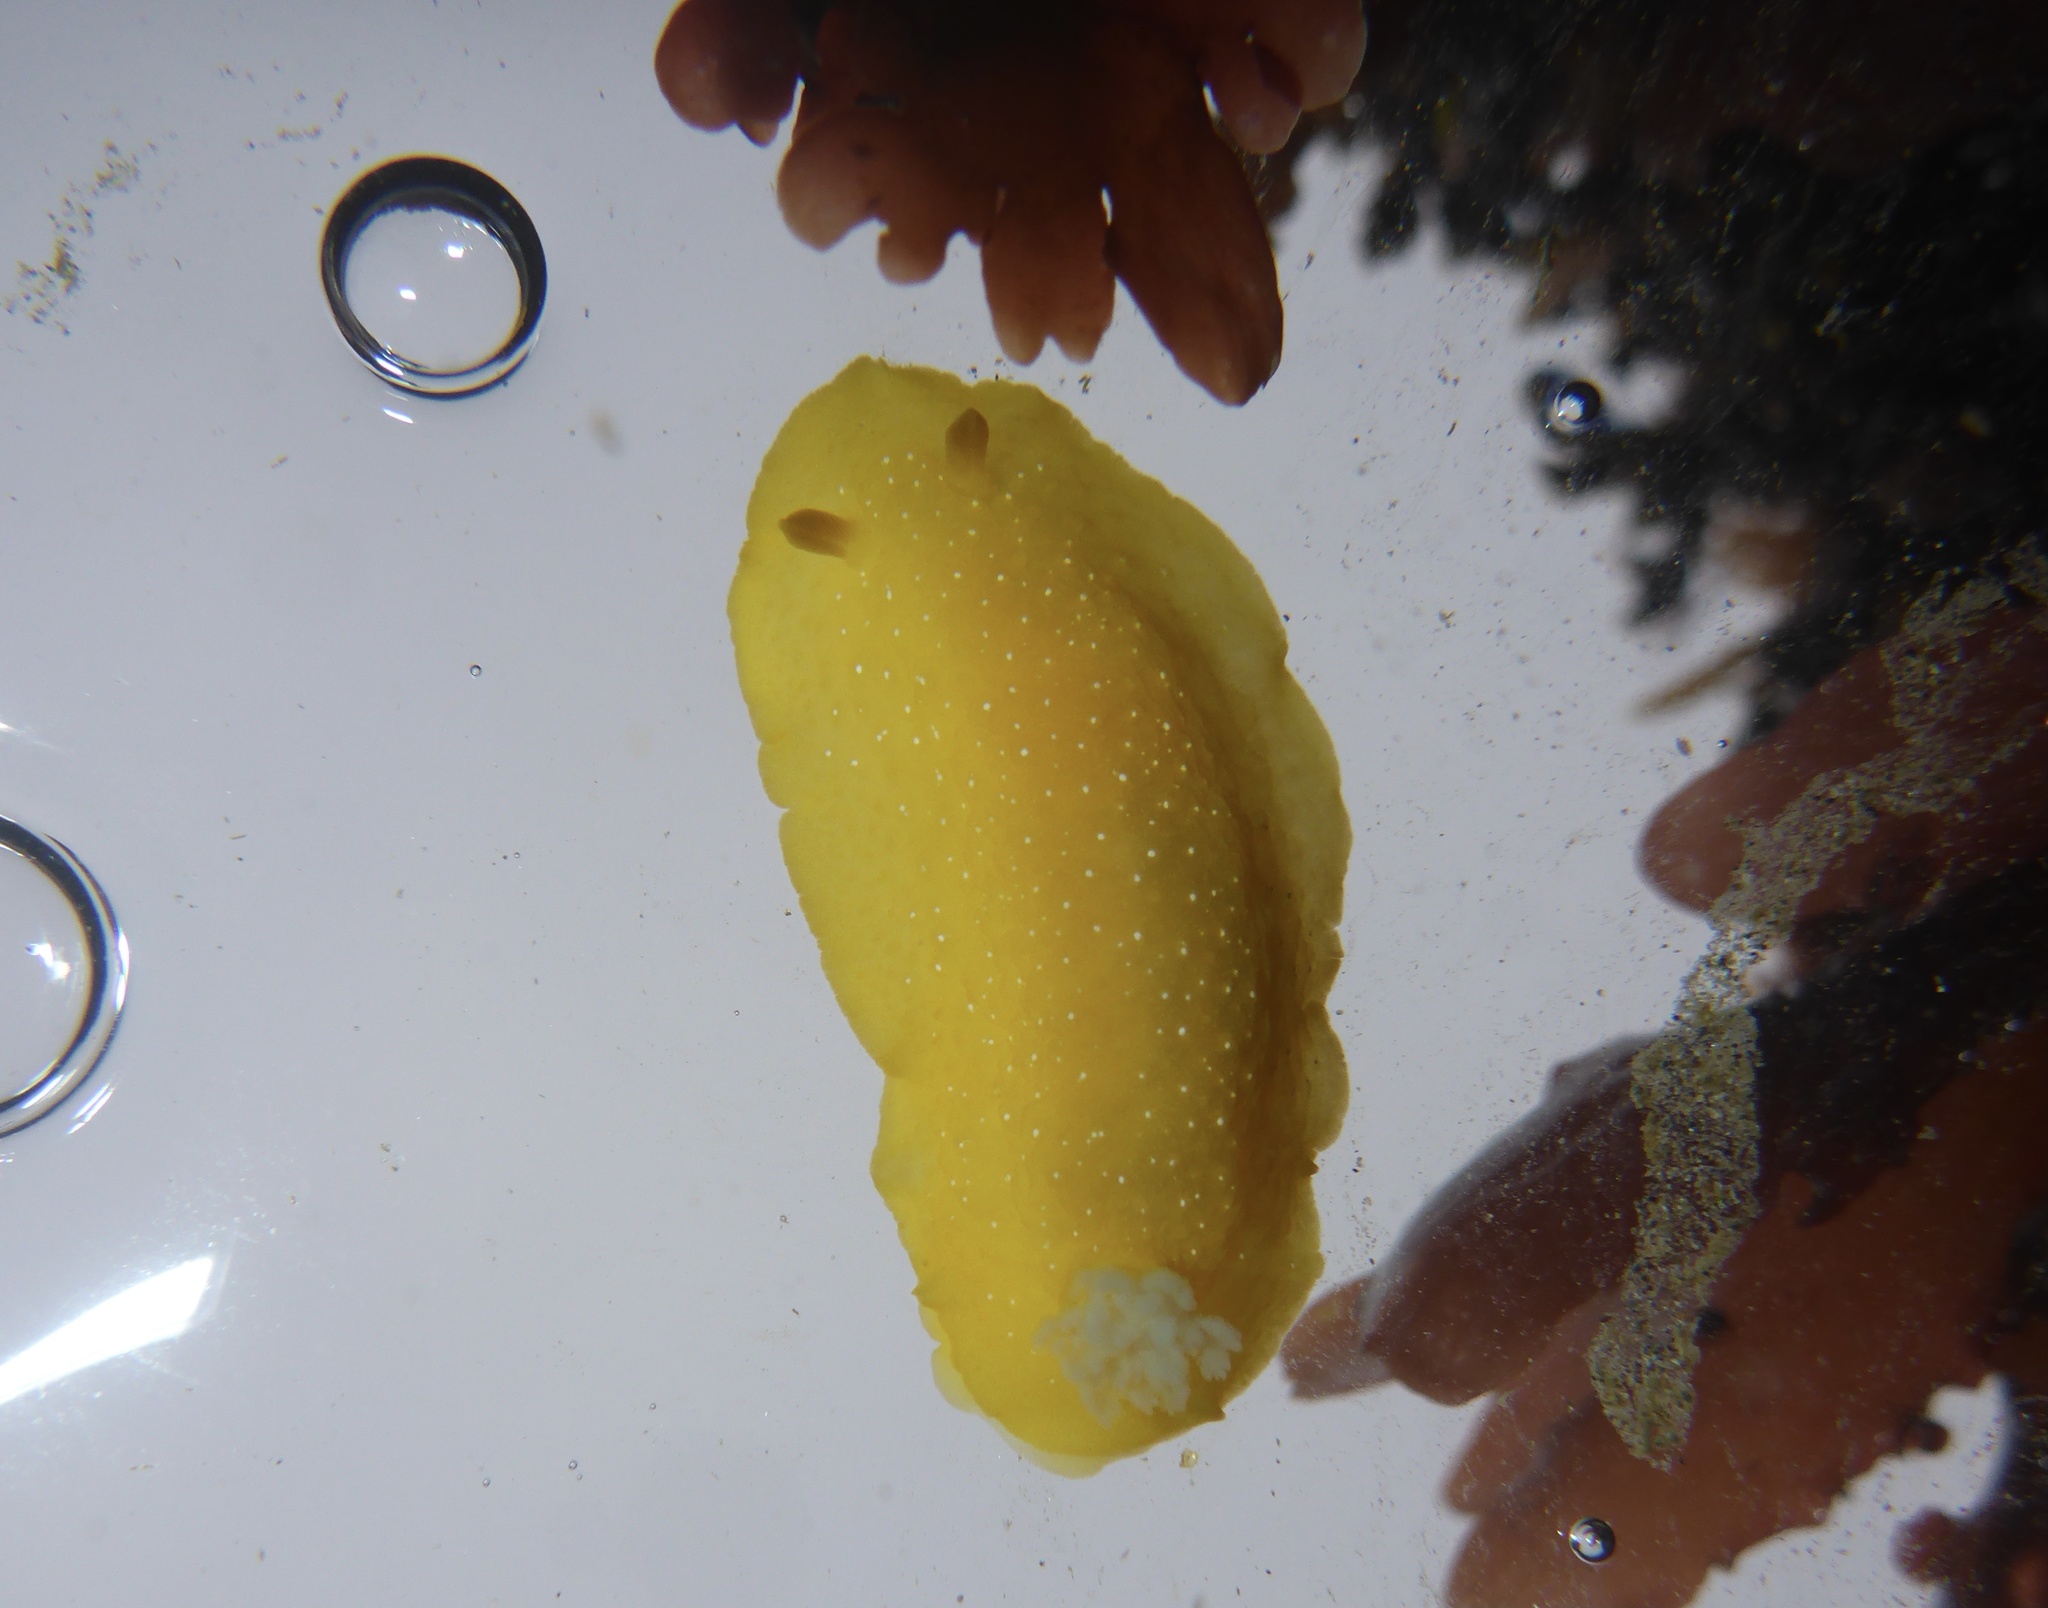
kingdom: Animalia
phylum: Mollusca
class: Gastropoda
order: Nudibranchia
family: Dendrodorididae
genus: Doriopsilla
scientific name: Doriopsilla fulva
